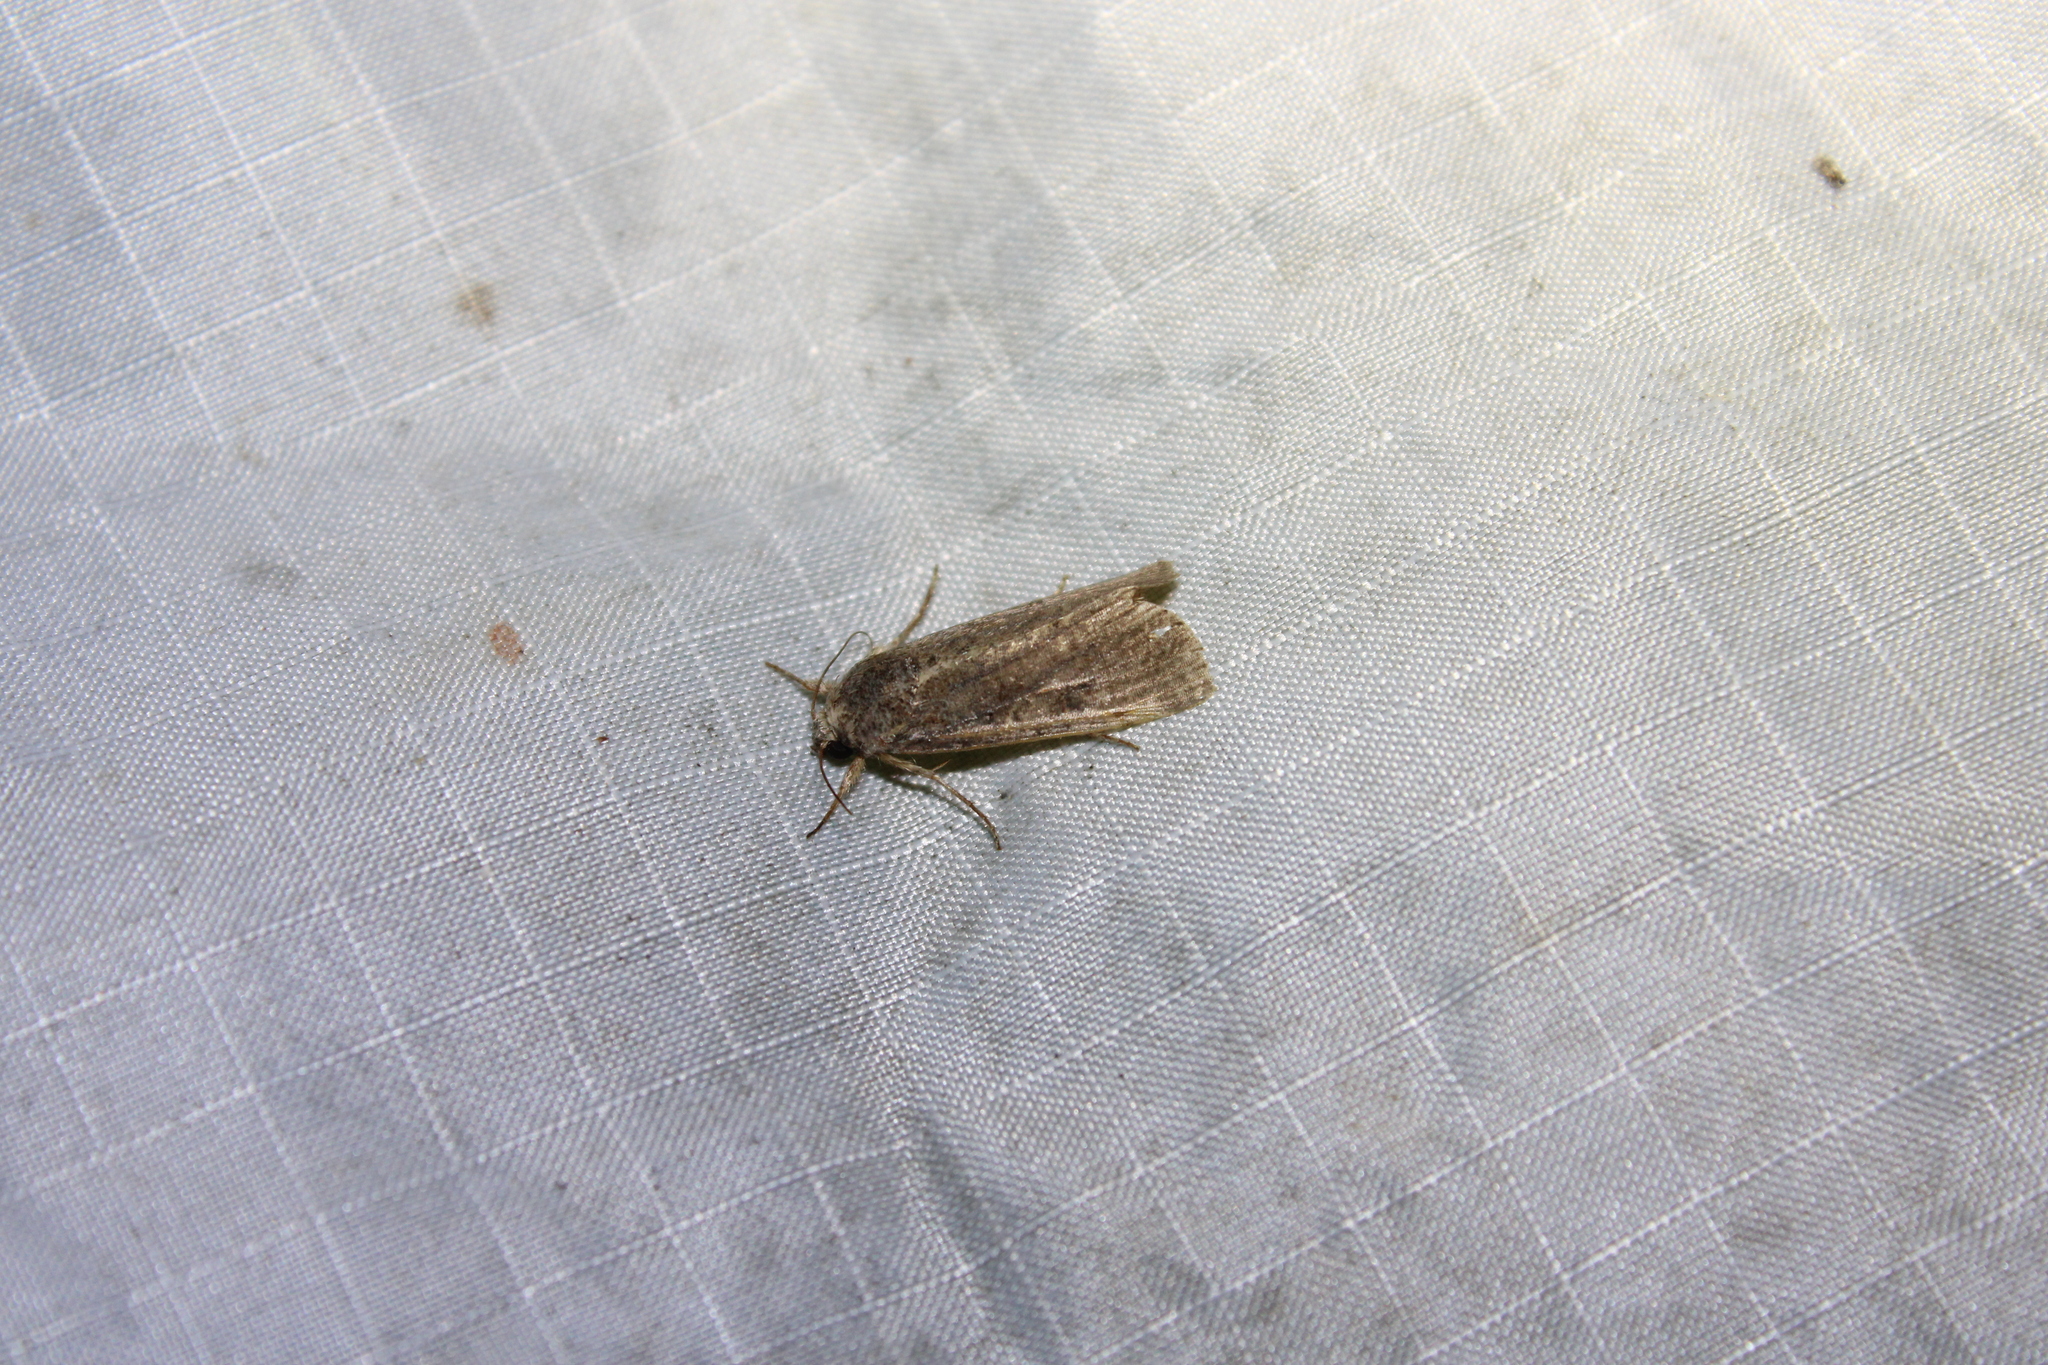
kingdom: Animalia
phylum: Arthropoda
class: Insecta
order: Lepidoptera
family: Noctuidae
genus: Spodoptera
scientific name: Spodoptera frugiperda
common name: Fall armyworm
